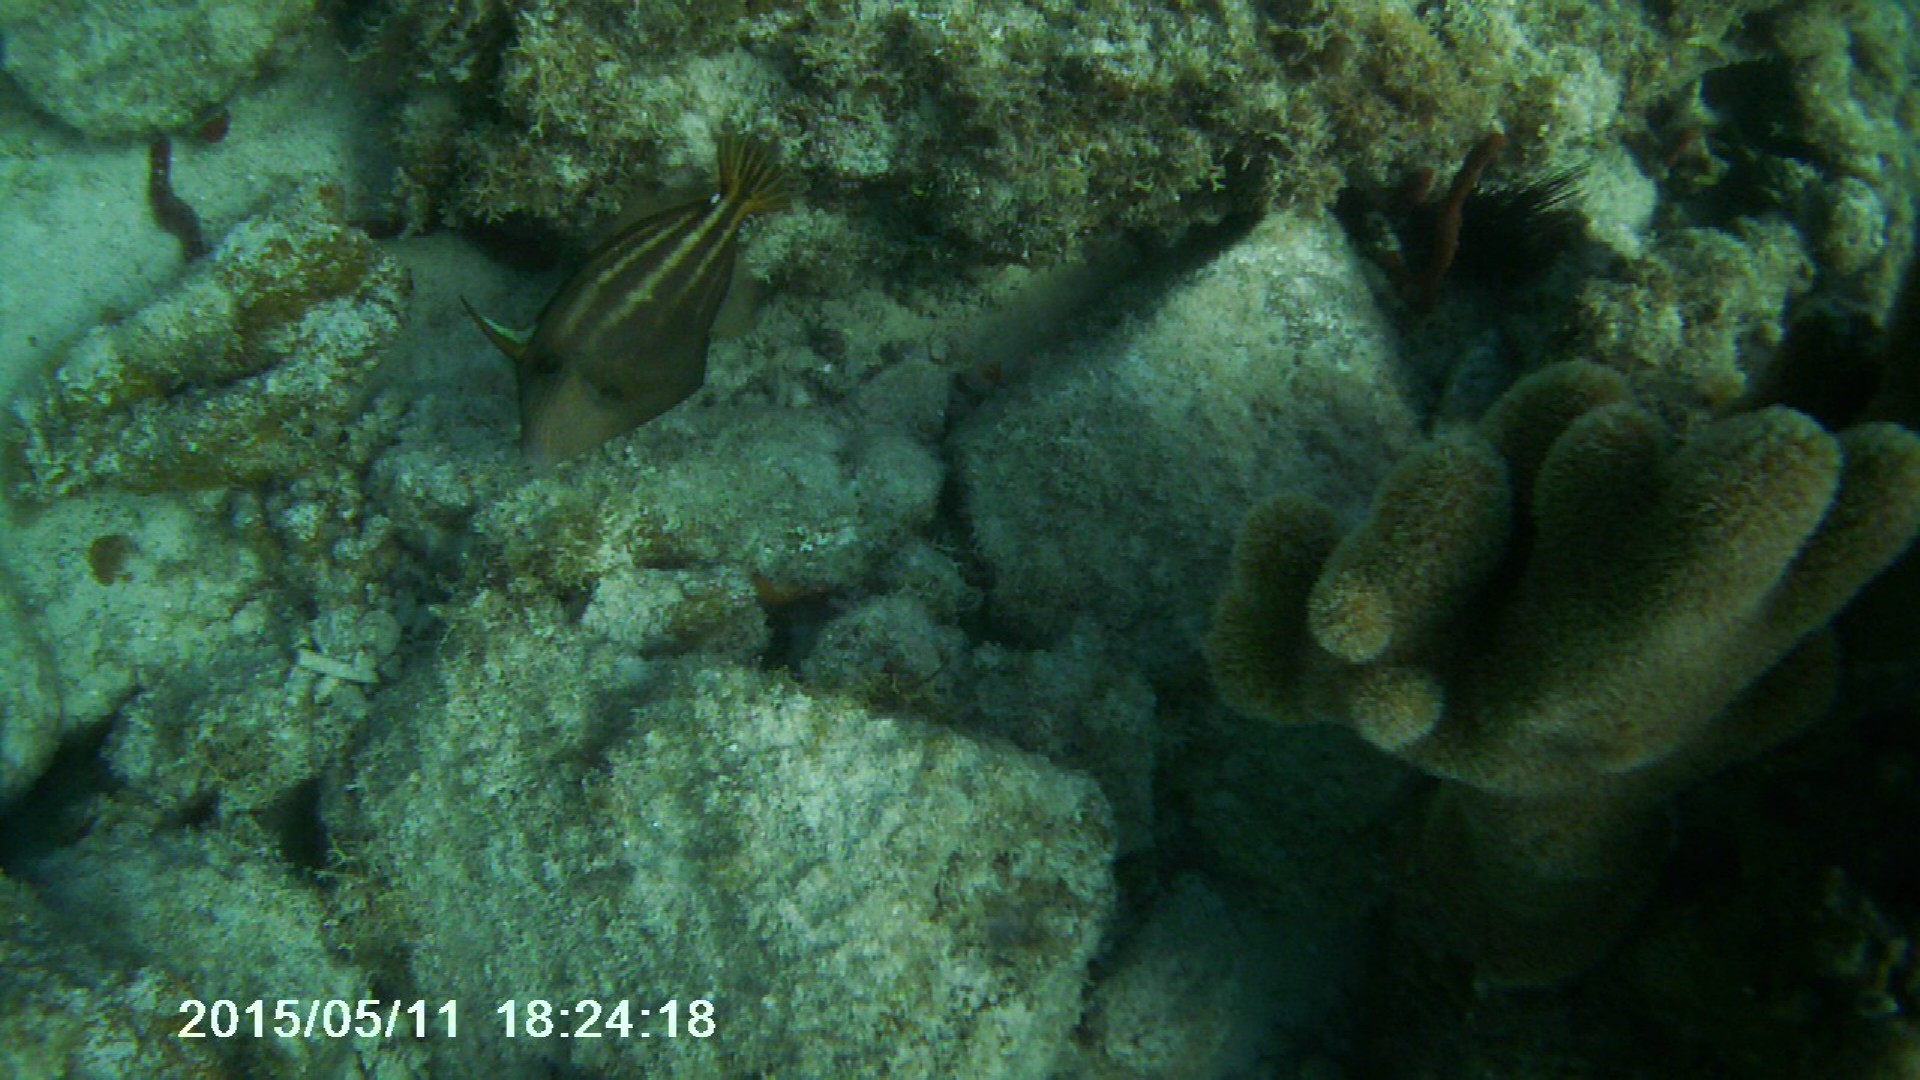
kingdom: Animalia
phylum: Chordata
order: Tetraodontiformes
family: Monacanthidae
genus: Cantherhines
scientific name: Cantherhines pullus
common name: Orangespotted filefish
